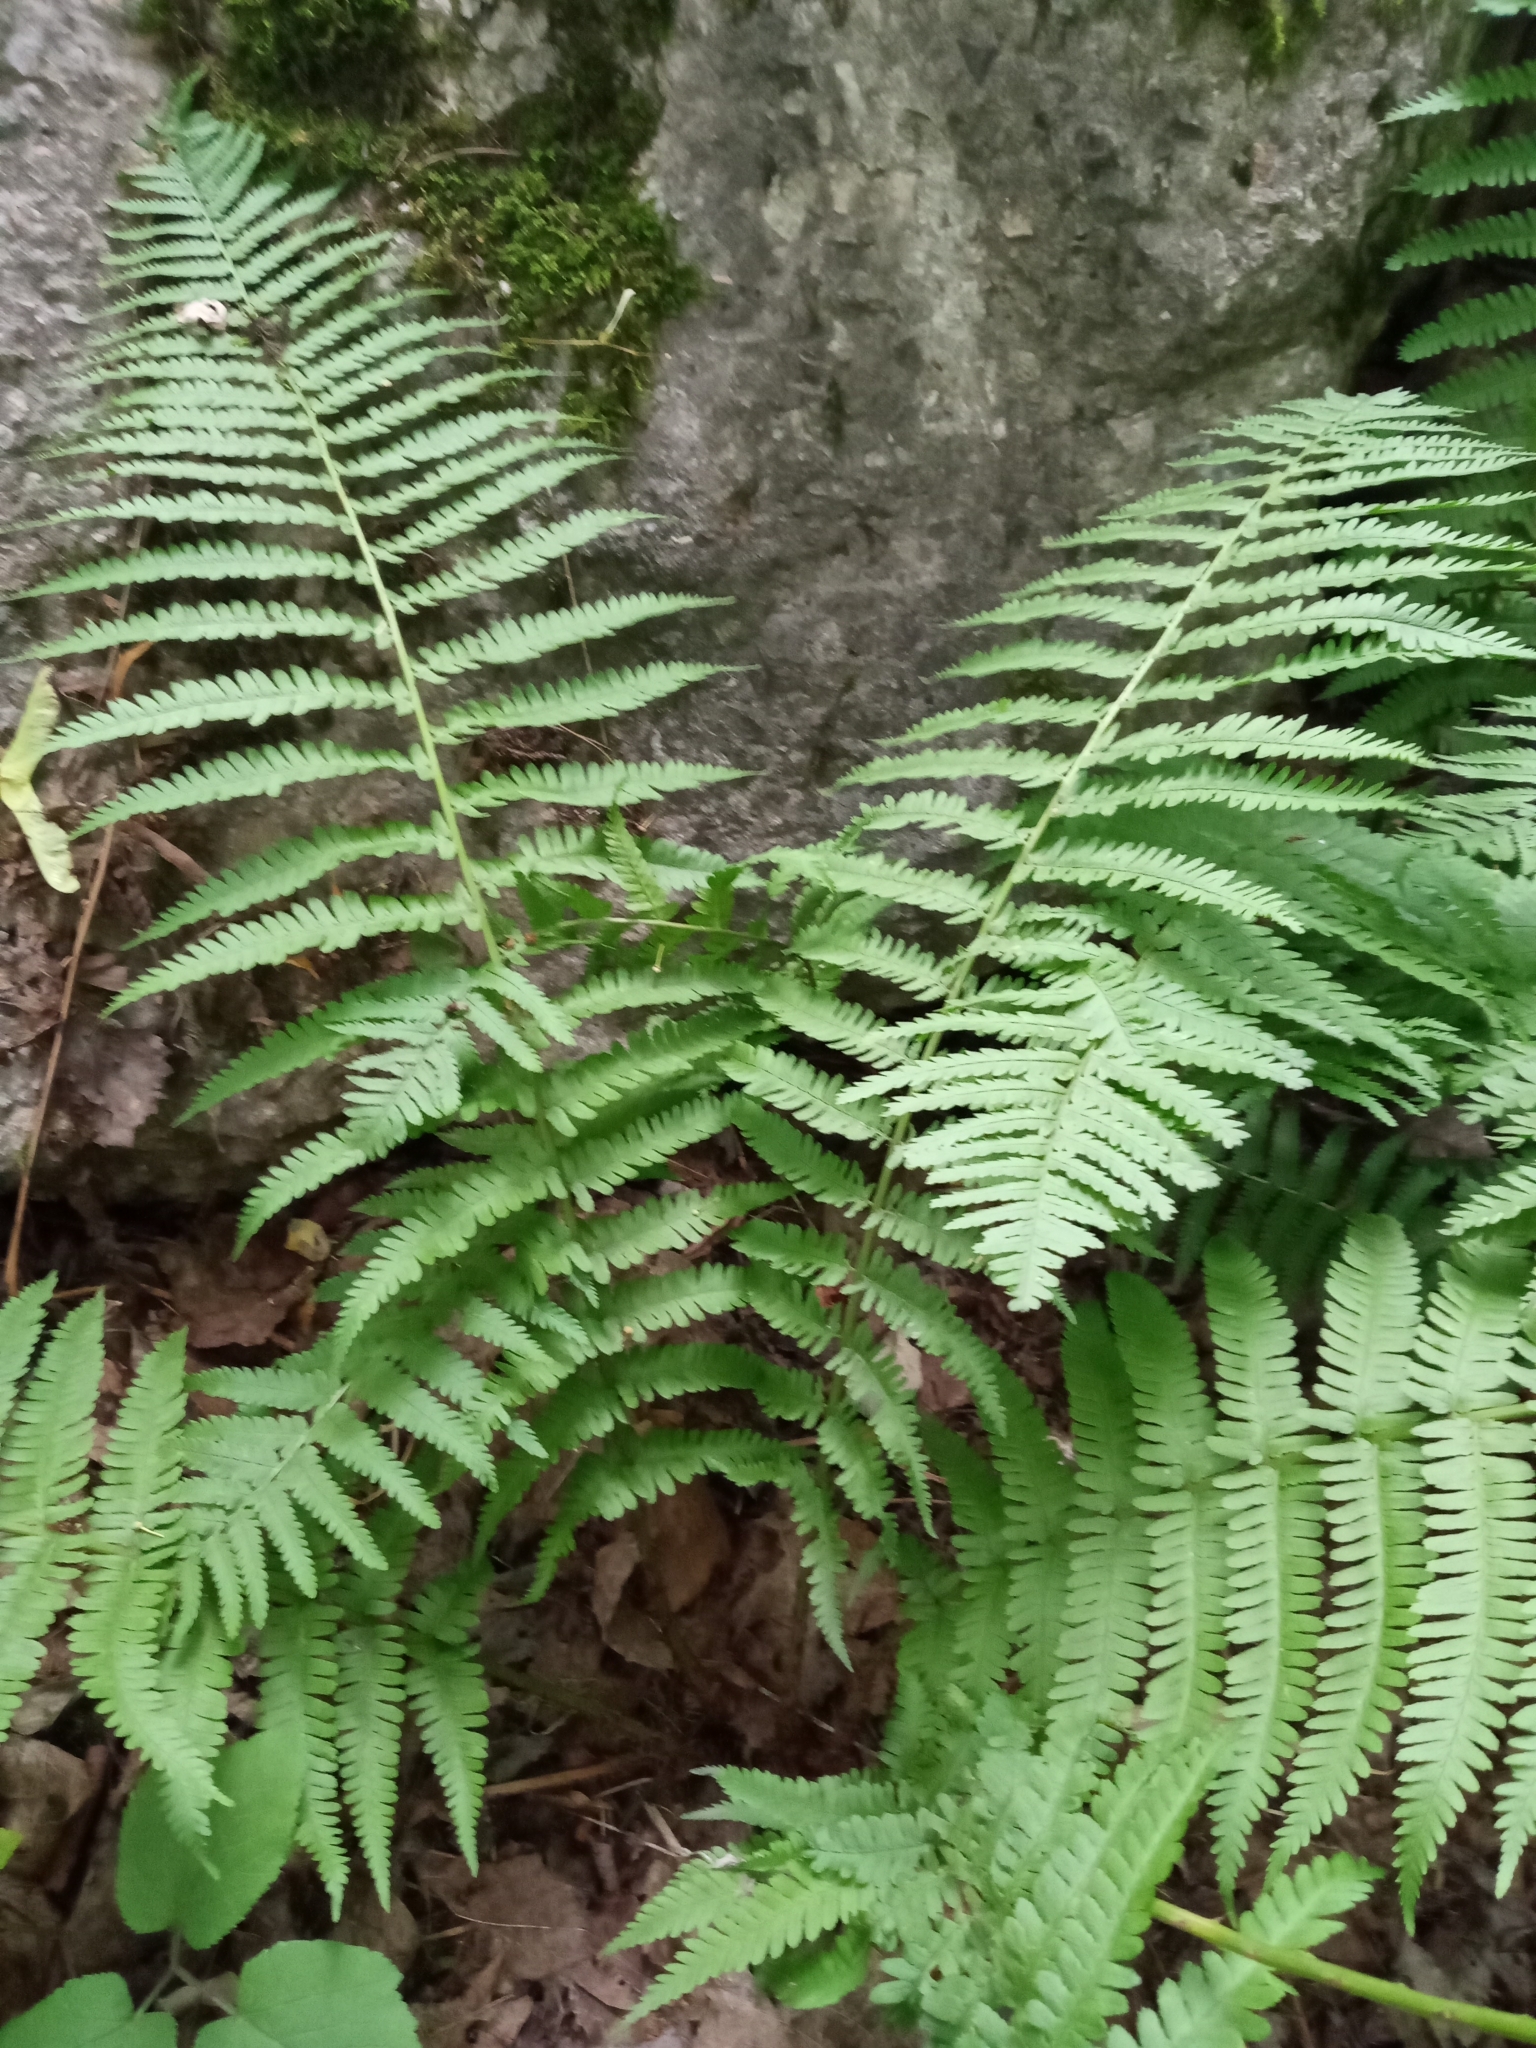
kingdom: Plantae
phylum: Tracheophyta
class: Polypodiopsida
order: Polypodiales
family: Dryopteridaceae
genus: Dryopteris
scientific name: Dryopteris filix-mas
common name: Male fern
